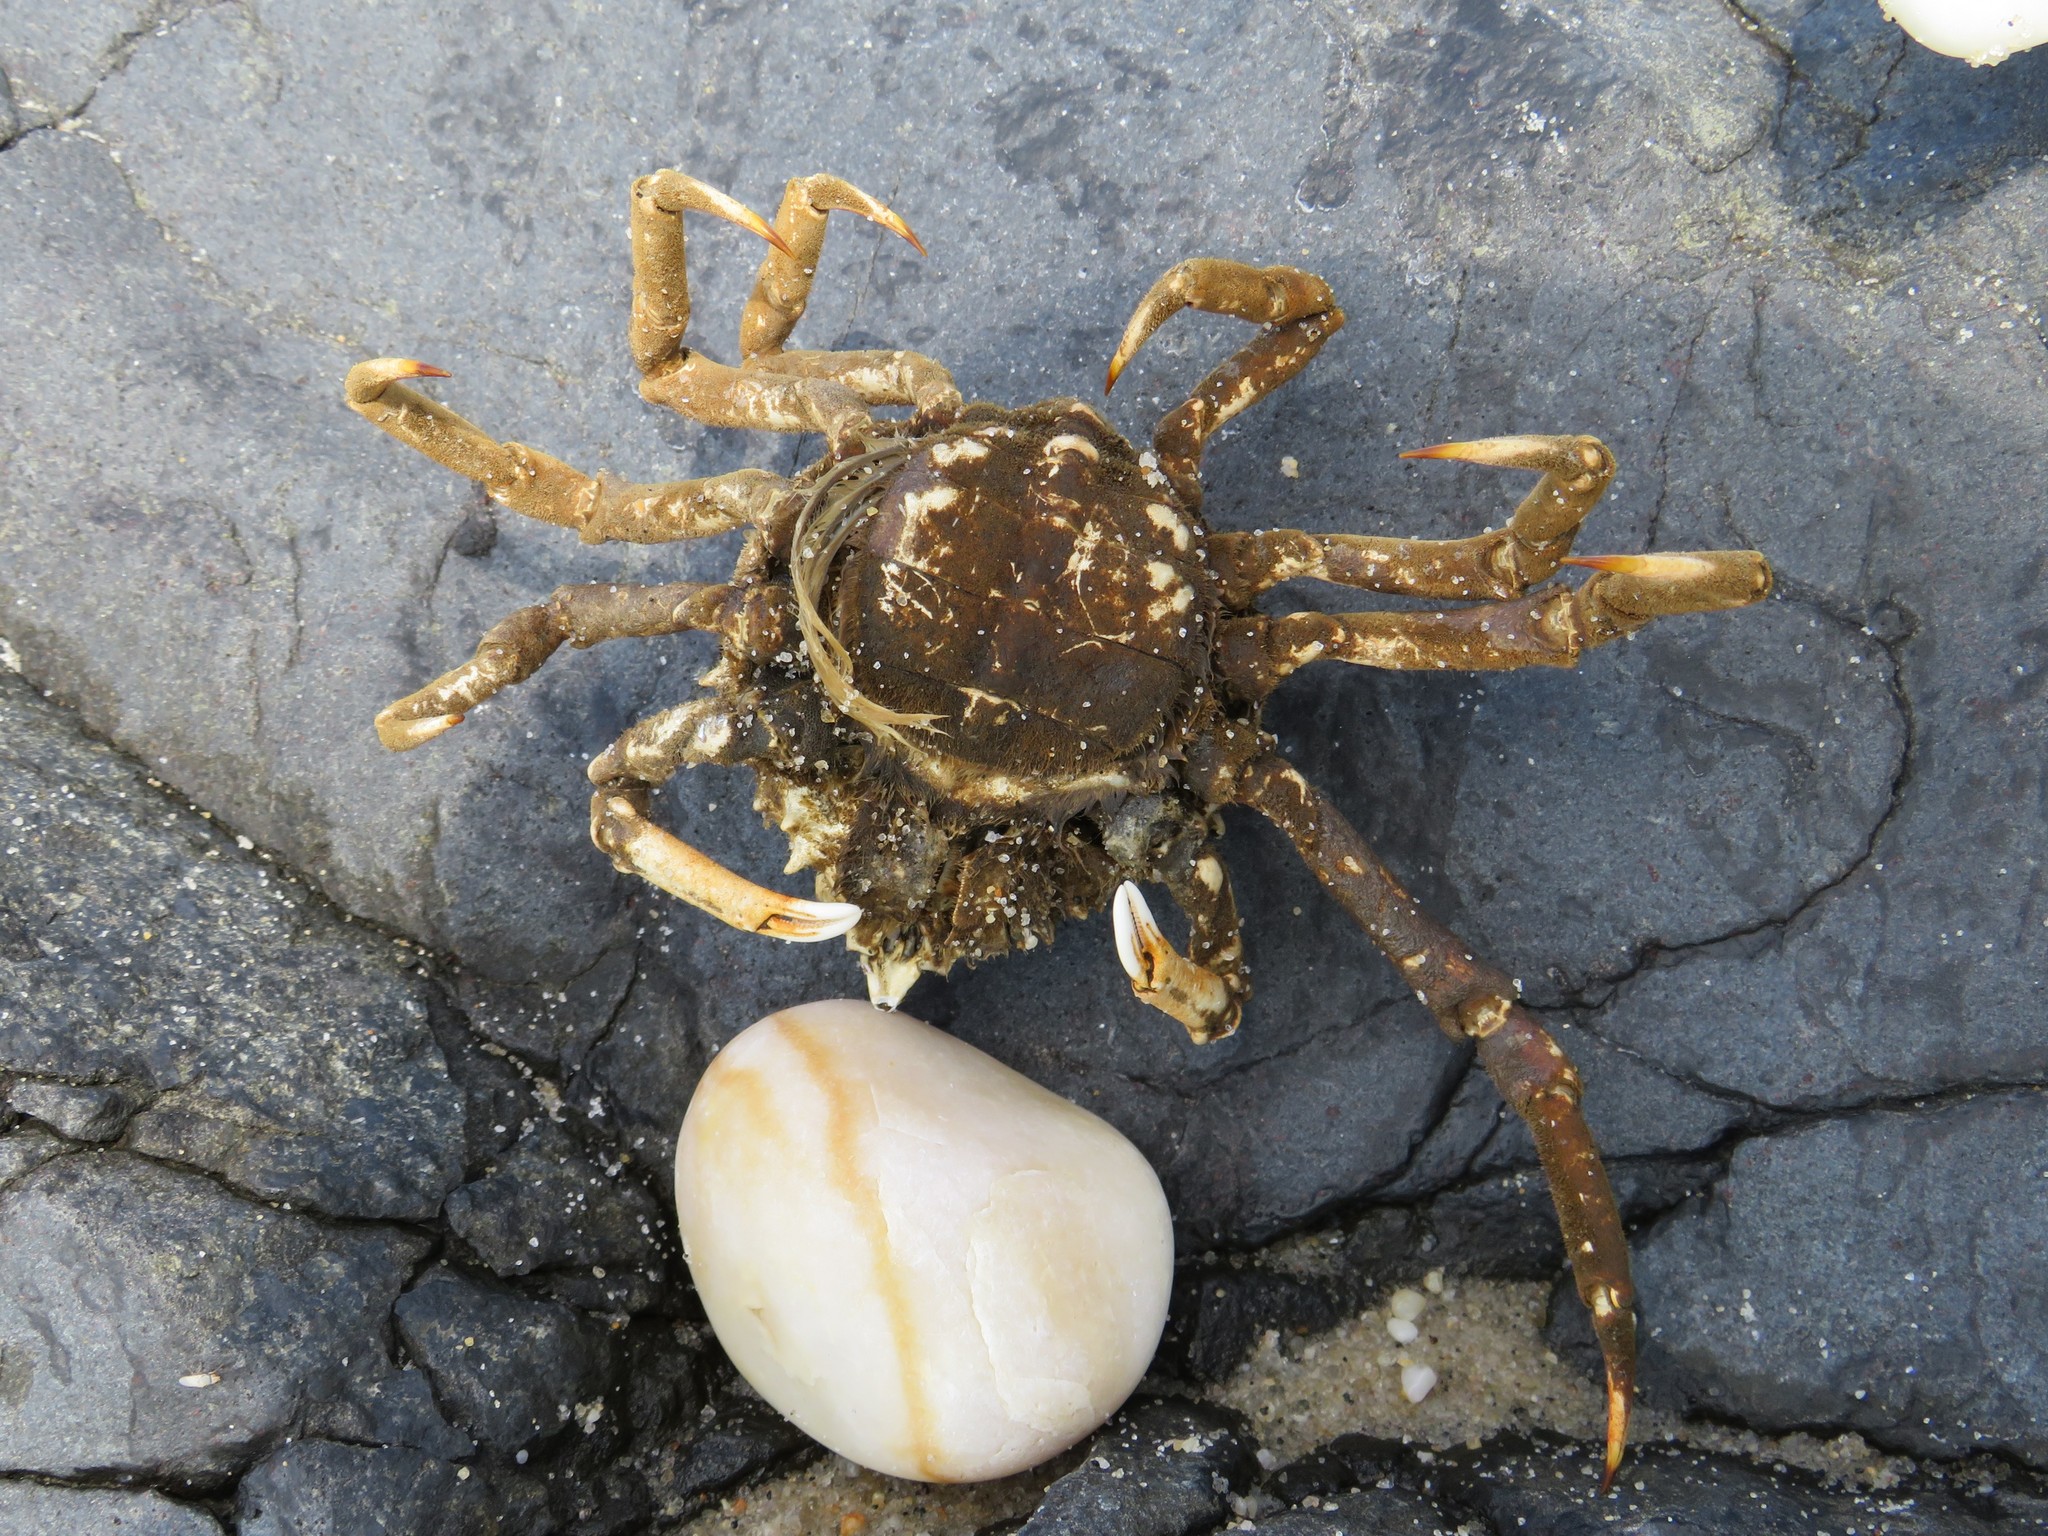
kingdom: Animalia
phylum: Arthropoda
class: Malacostraca
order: Decapoda
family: Epialtidae
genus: Libinia
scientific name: Libinia emarginata
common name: Common spider crab
